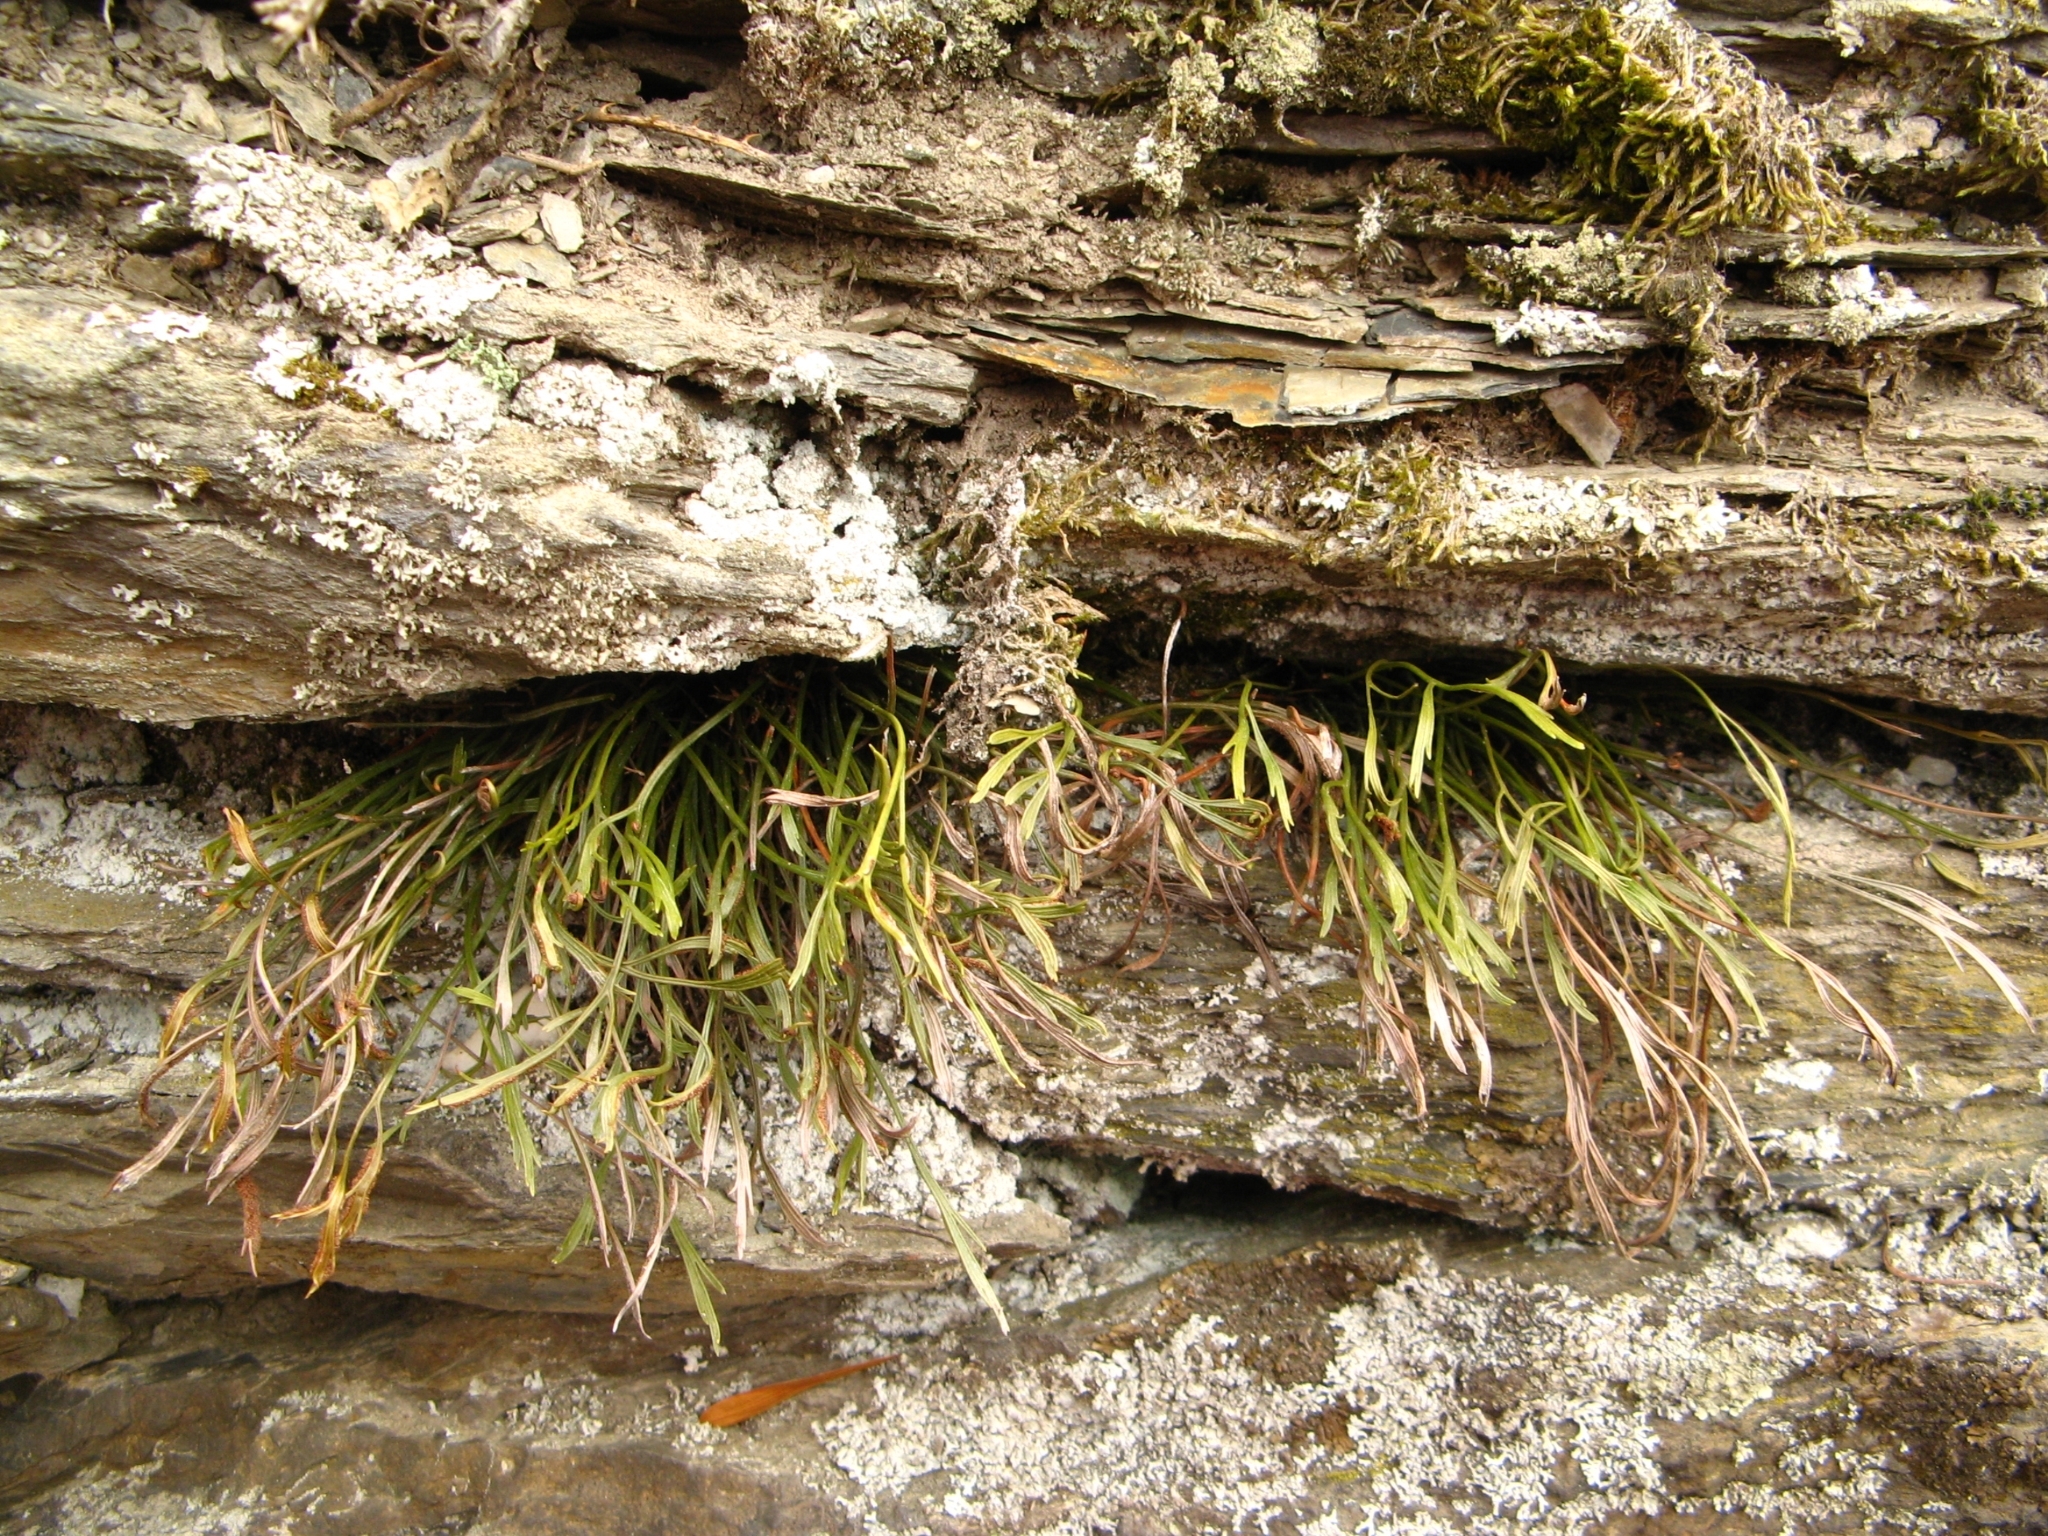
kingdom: Plantae
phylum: Tracheophyta
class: Polypodiopsida
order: Polypodiales
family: Aspleniaceae
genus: Asplenium
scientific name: Asplenium septentrionale
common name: Forked spleenwort
